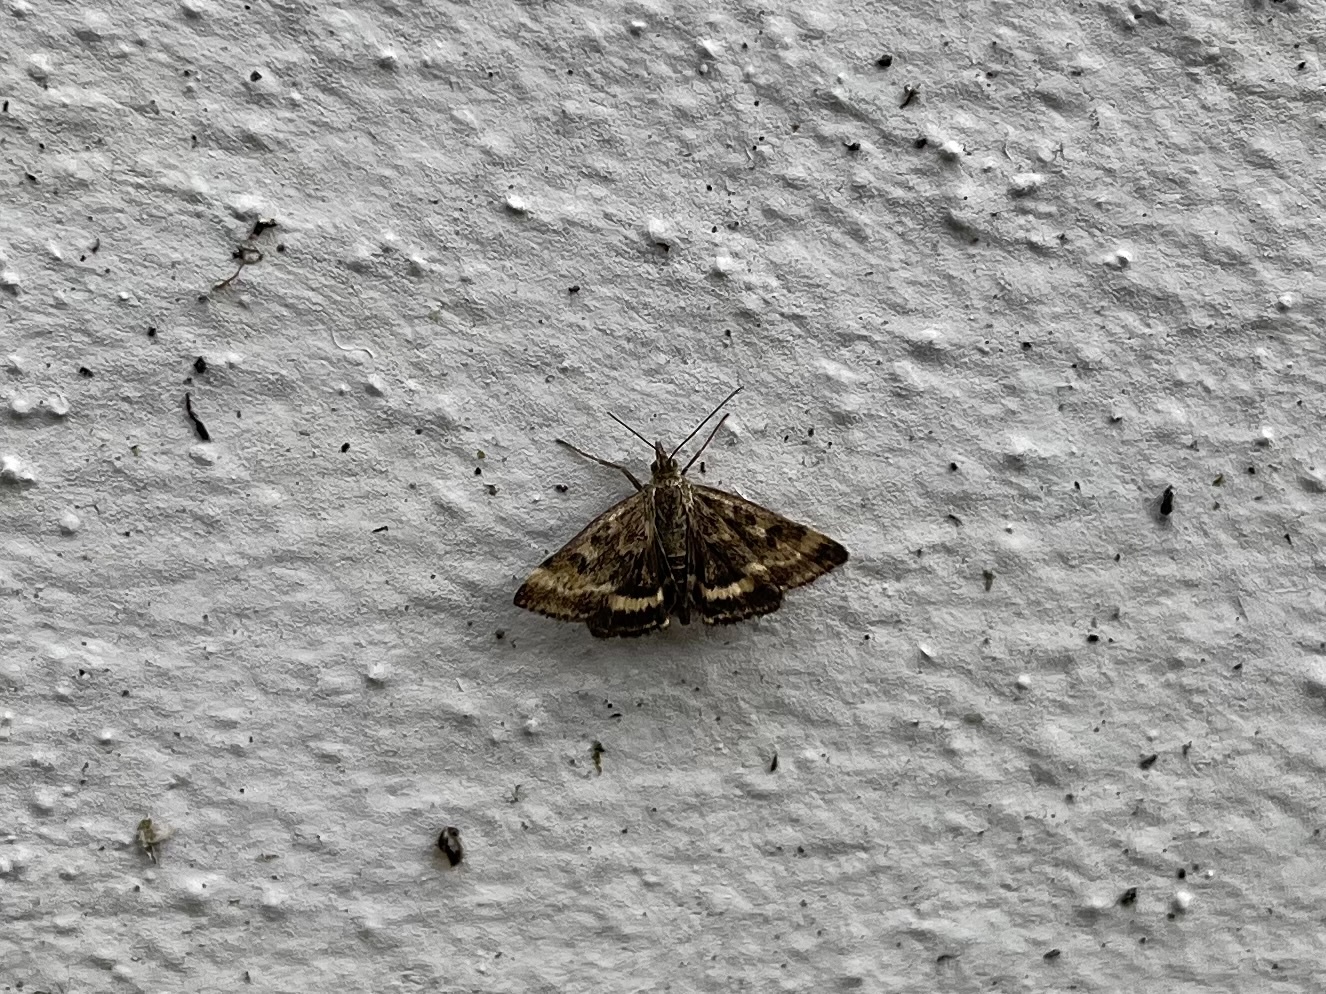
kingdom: Animalia
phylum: Arthropoda
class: Insecta
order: Lepidoptera
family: Crambidae
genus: Pyrausta
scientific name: Pyrausta despicata
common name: Straw-barred pearl
